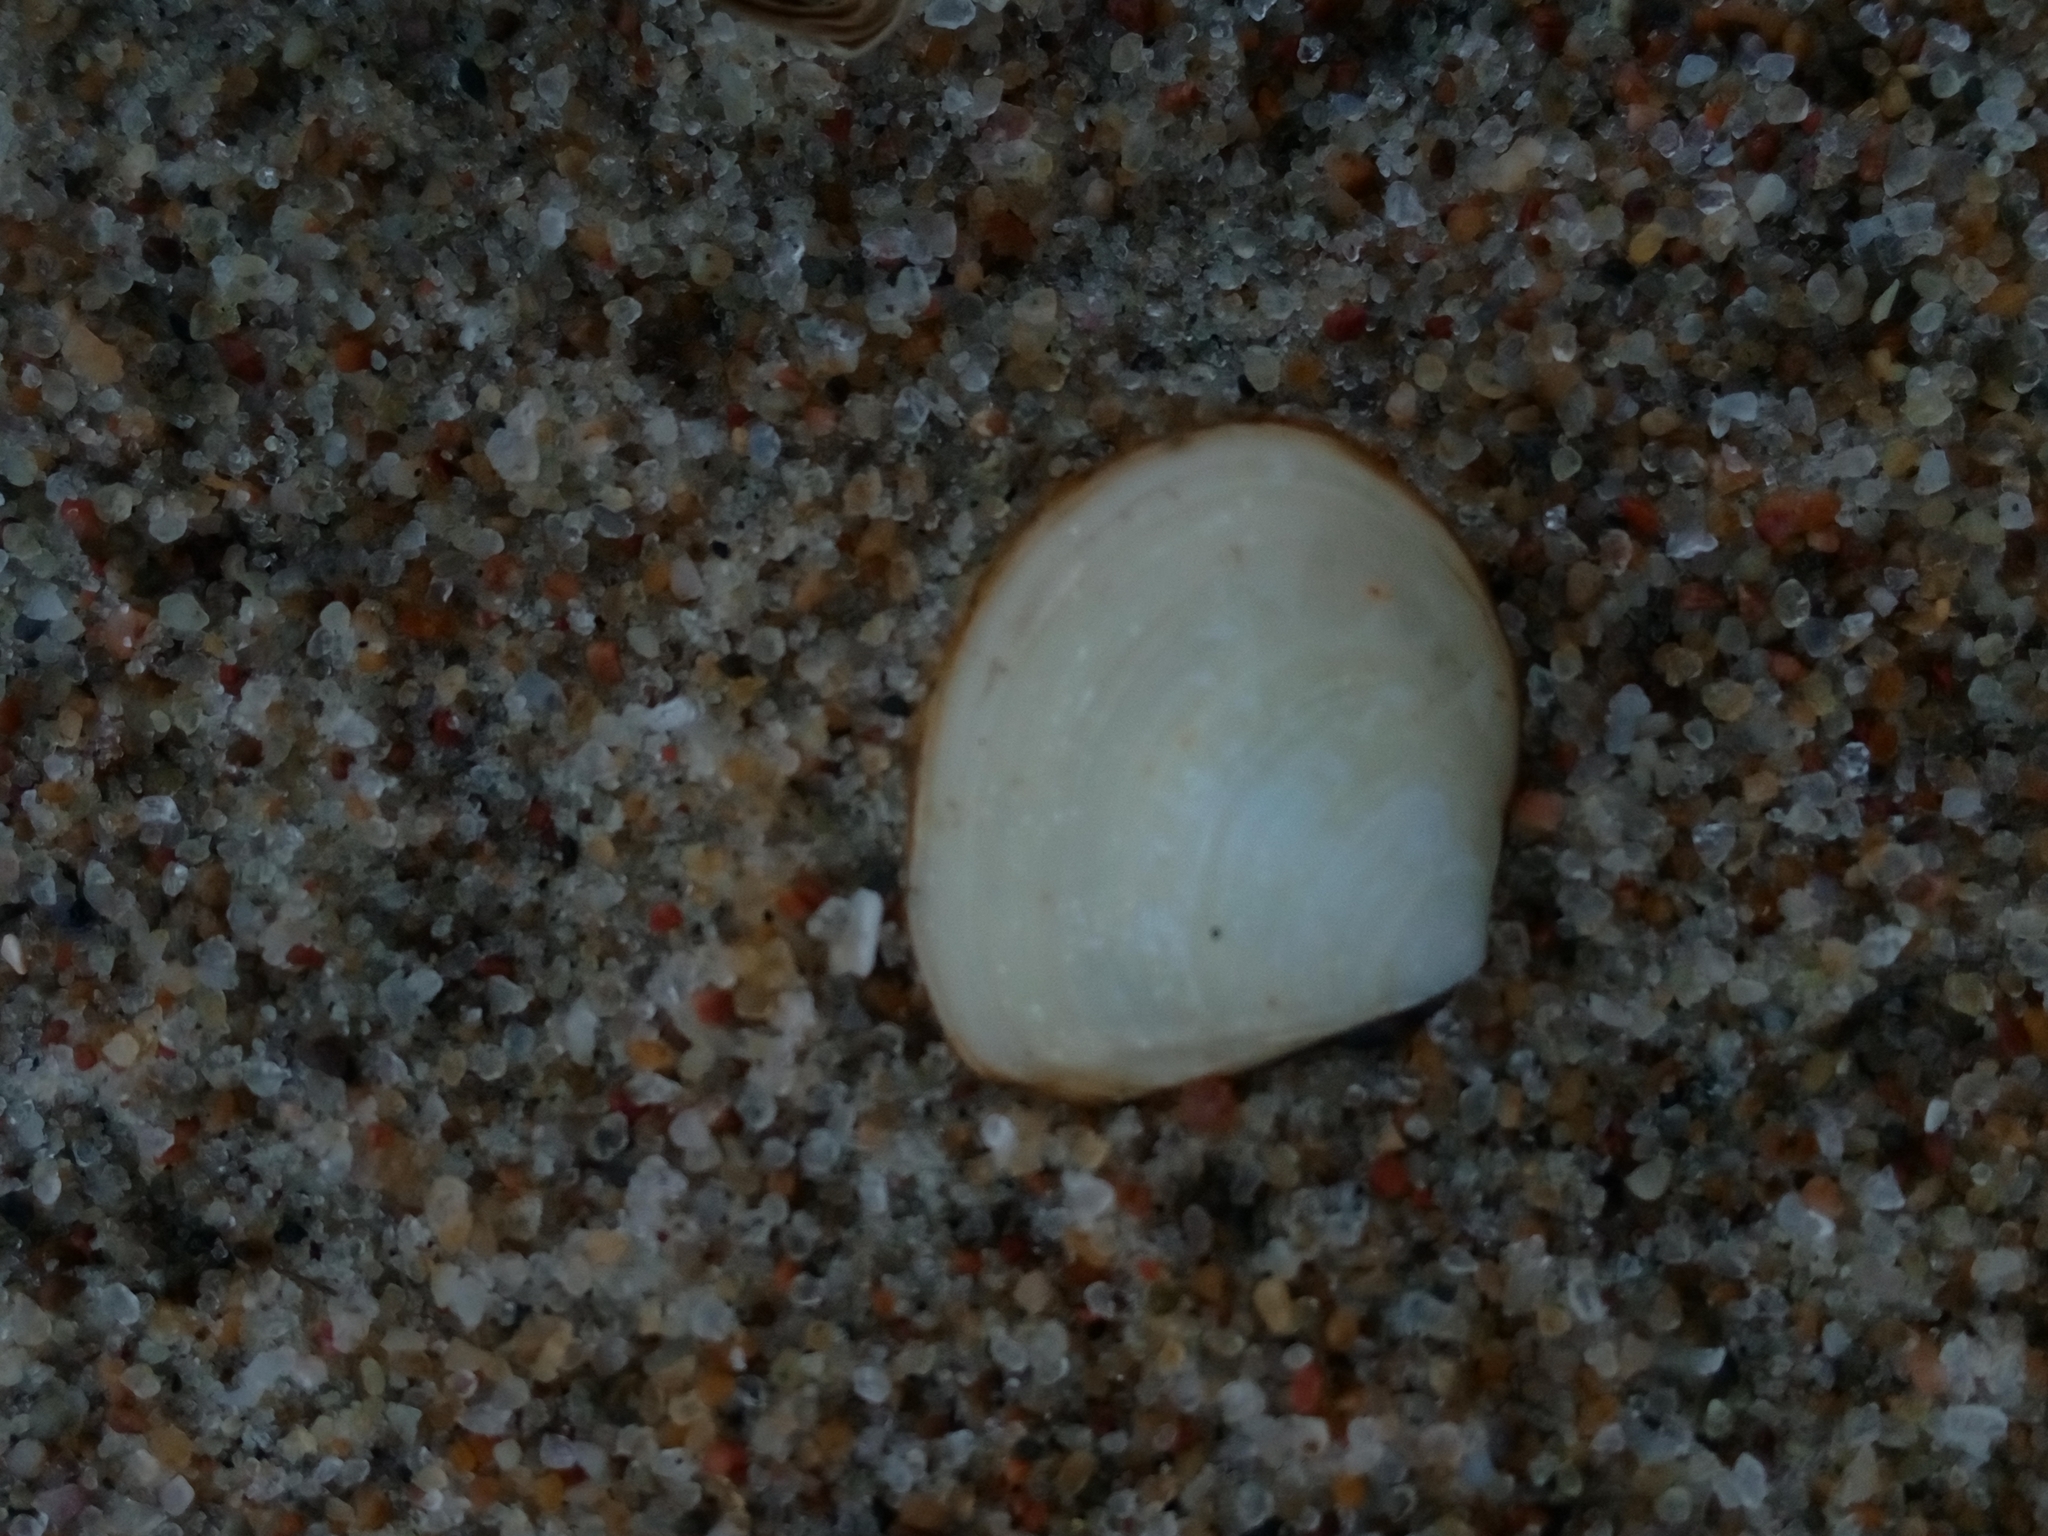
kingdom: Animalia
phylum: Mollusca
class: Bivalvia
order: Cardiida
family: Tellinidae
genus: Macoma
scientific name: Macoma balthica
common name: Baltic tellin
